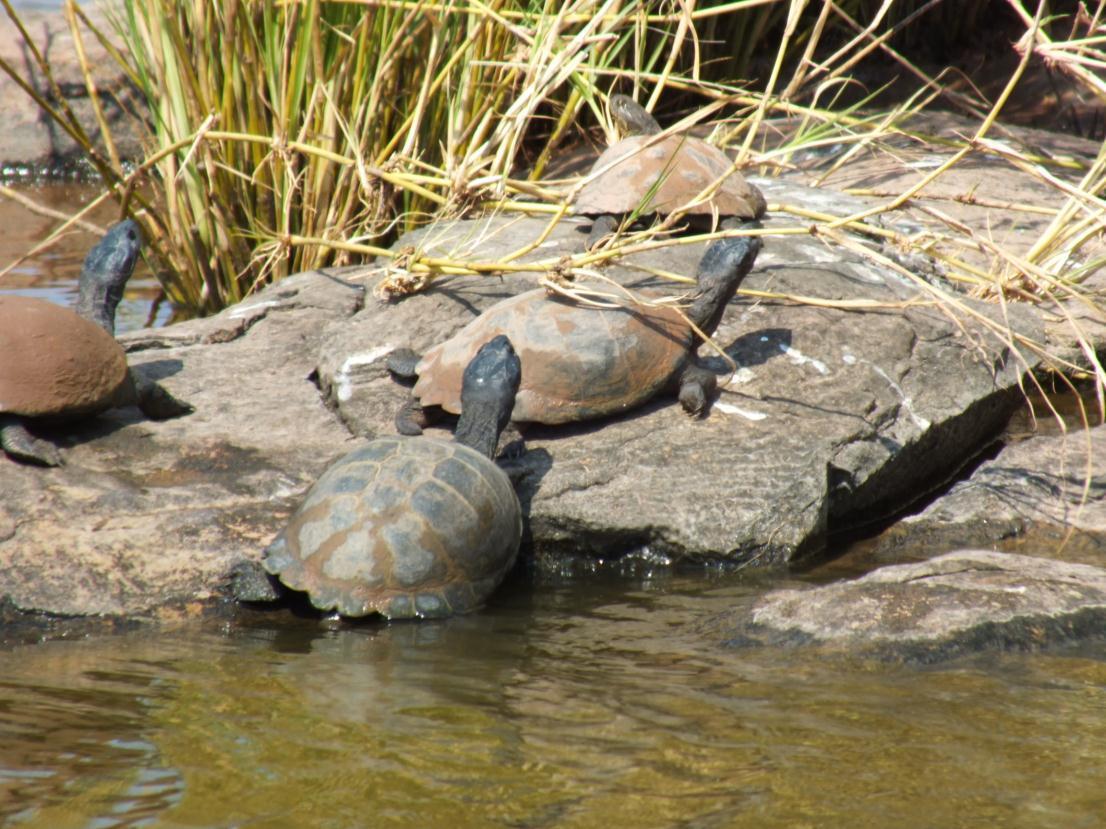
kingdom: Animalia
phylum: Chordata
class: Testudines
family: Pelomedusidae
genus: Pelusios
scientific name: Pelusios sinuatus
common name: Serrated hinged terrapin
